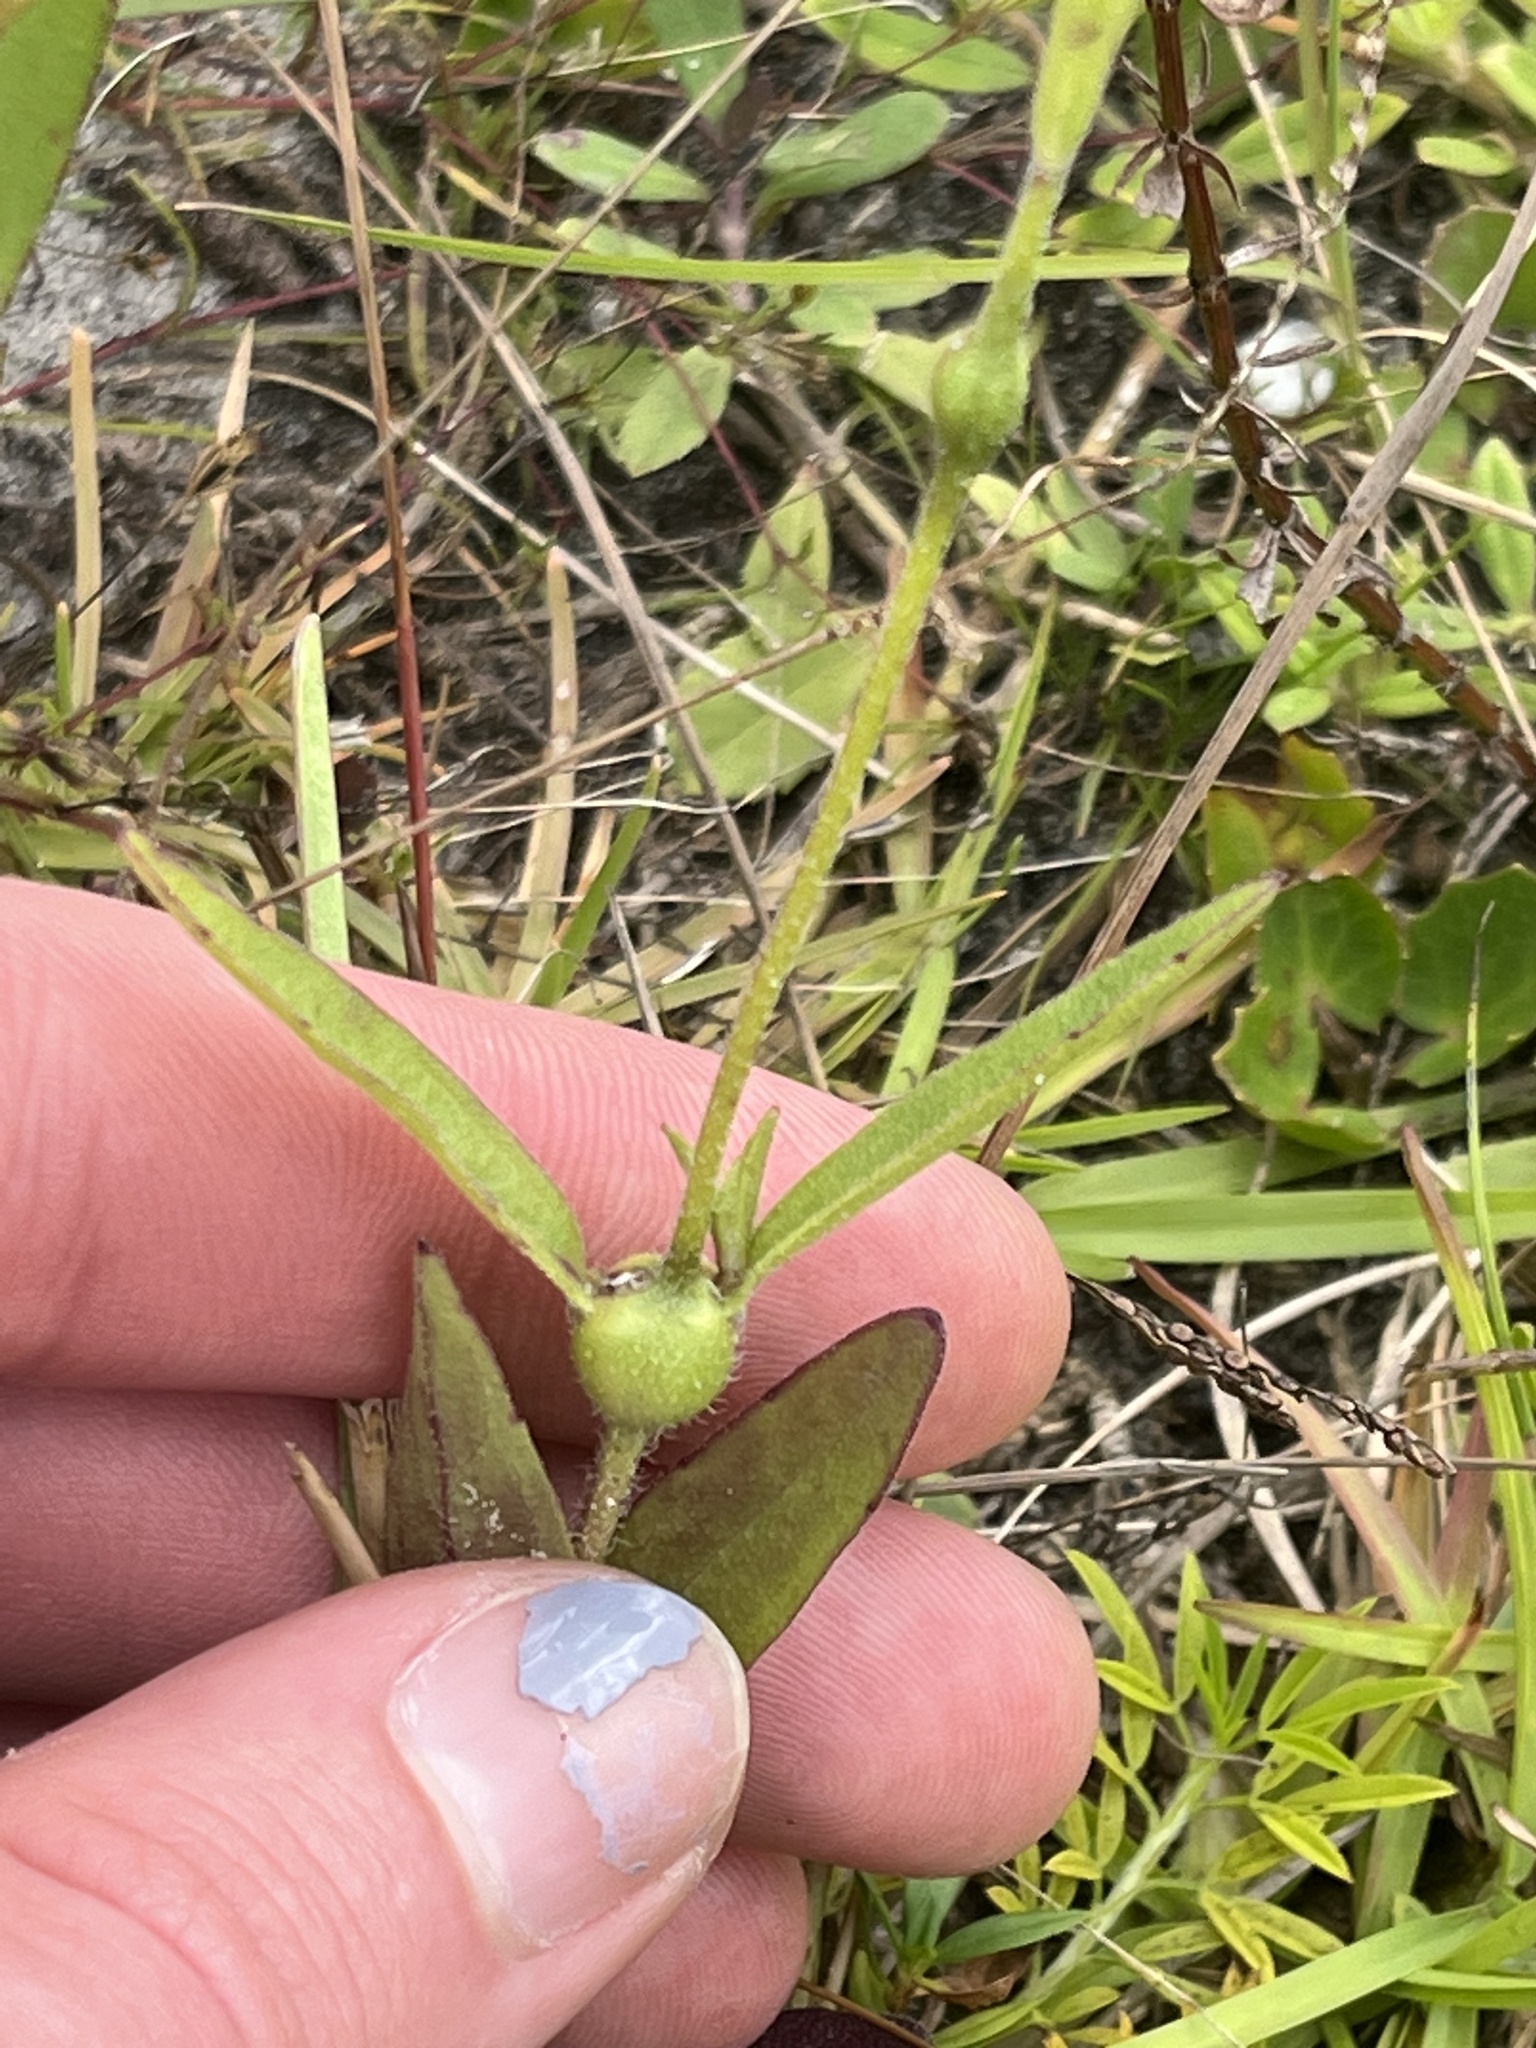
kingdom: Plantae
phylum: Tracheophyta
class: Magnoliopsida
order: Lamiales
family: Orobanchaceae
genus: Buchnera
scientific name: Buchnera floridana
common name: Florida bluehearts
